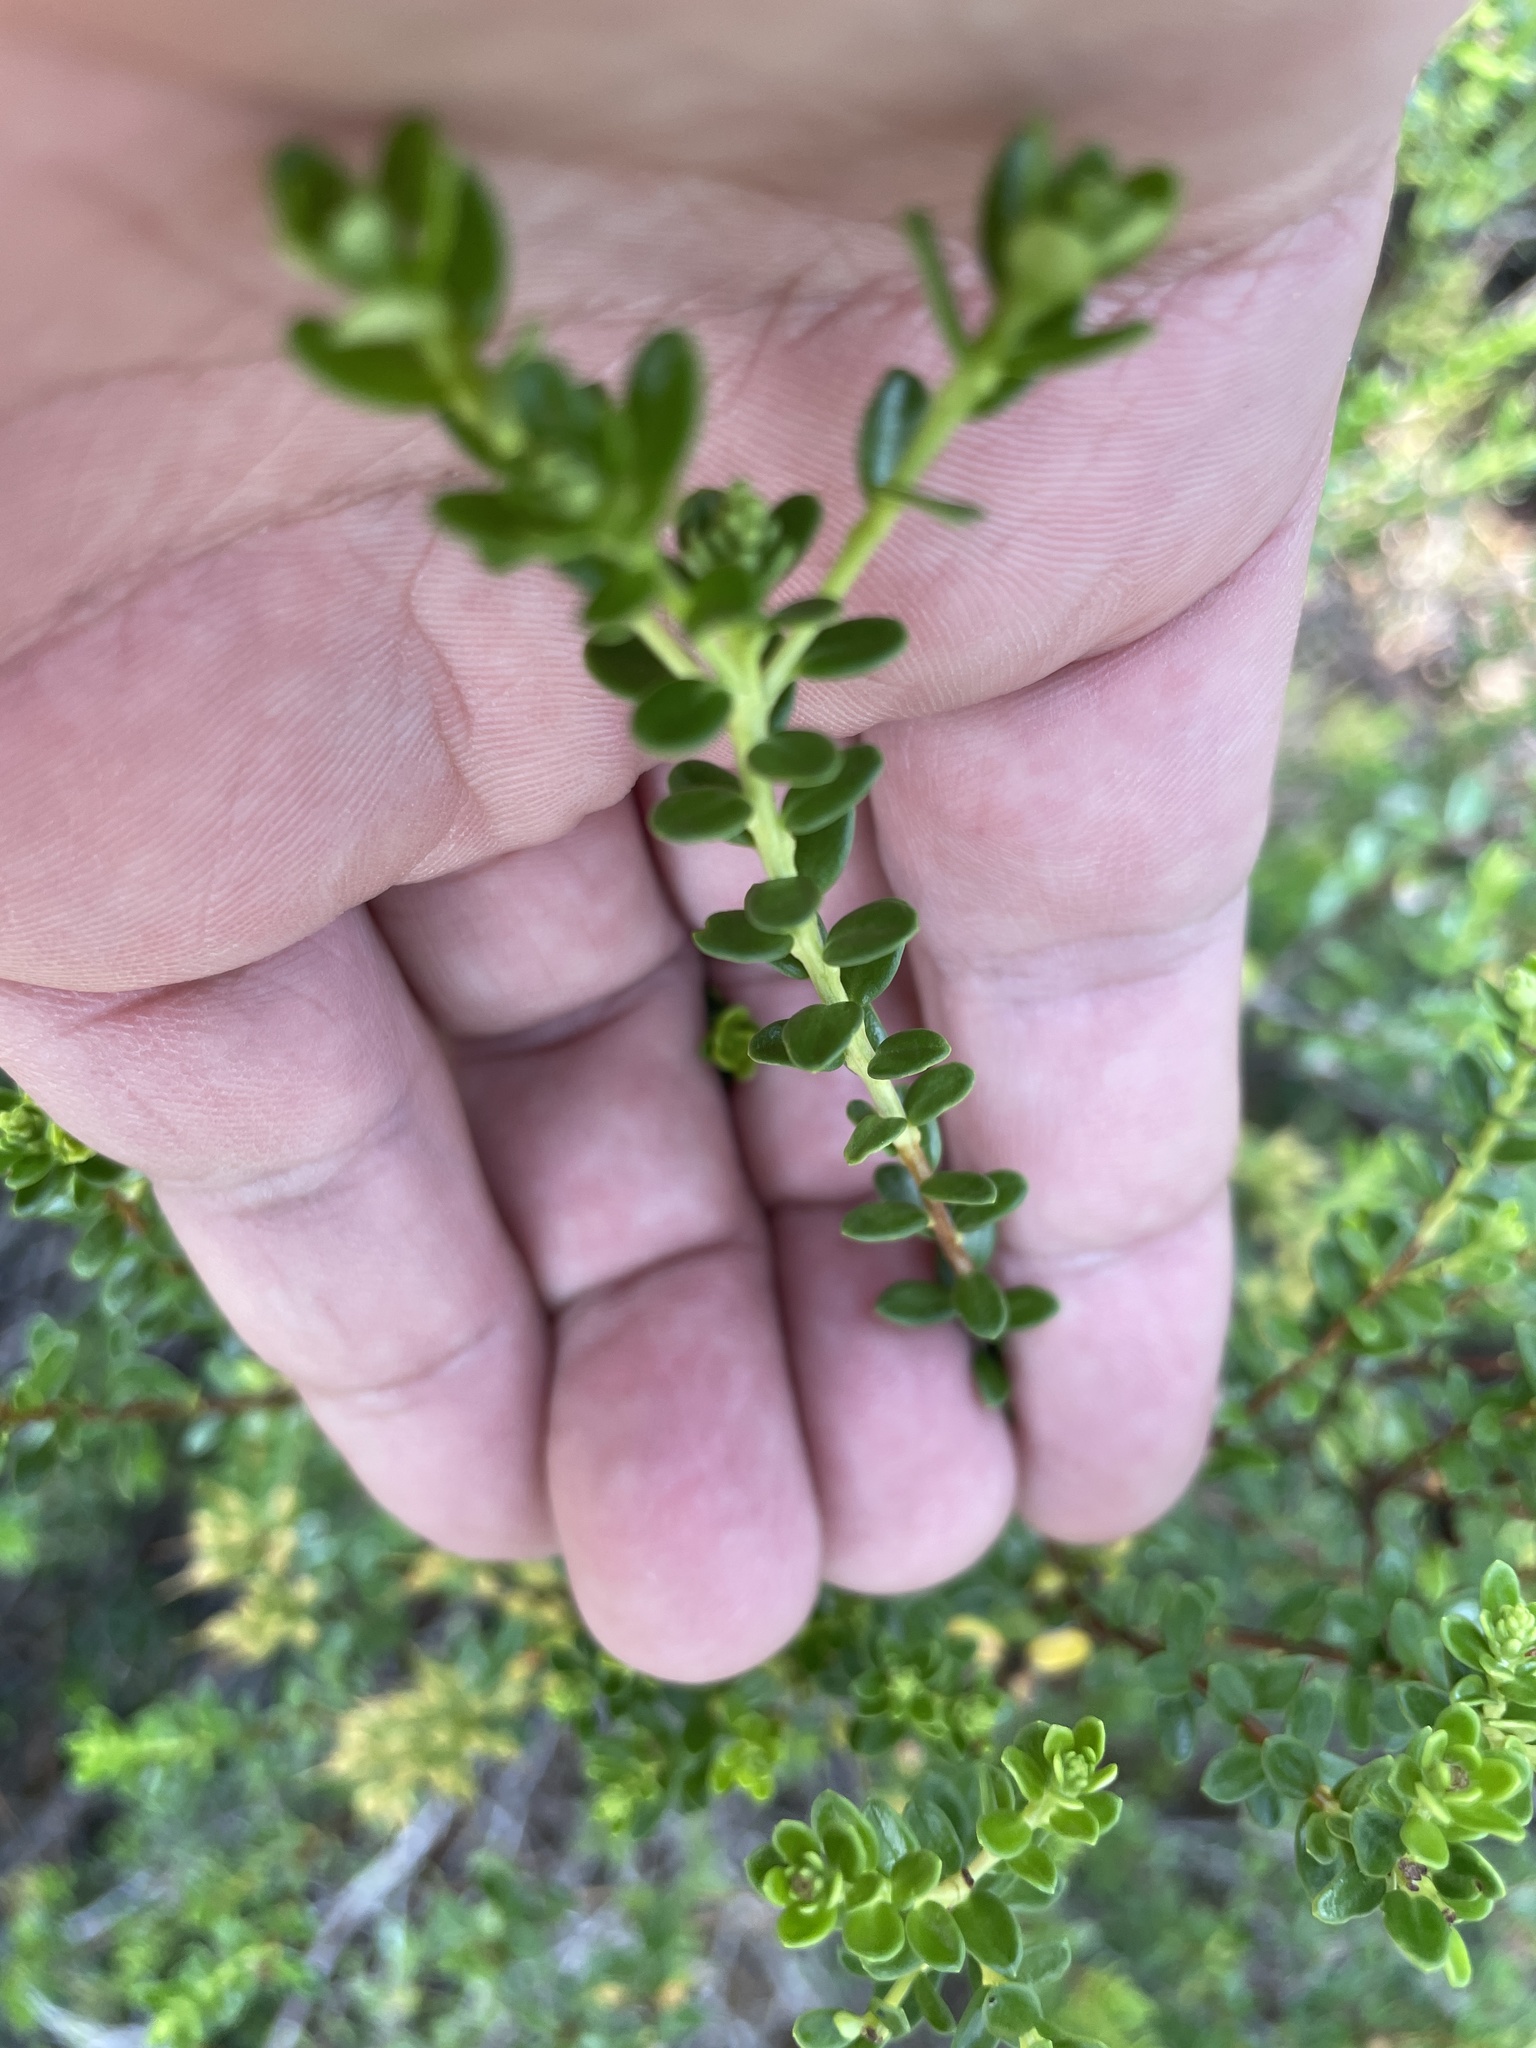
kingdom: Plantae
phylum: Tracheophyta
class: Magnoliopsida
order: Ericales
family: Ericaceae
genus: Kalmia
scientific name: Kalmia buxifolia
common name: Sandmyrtle
